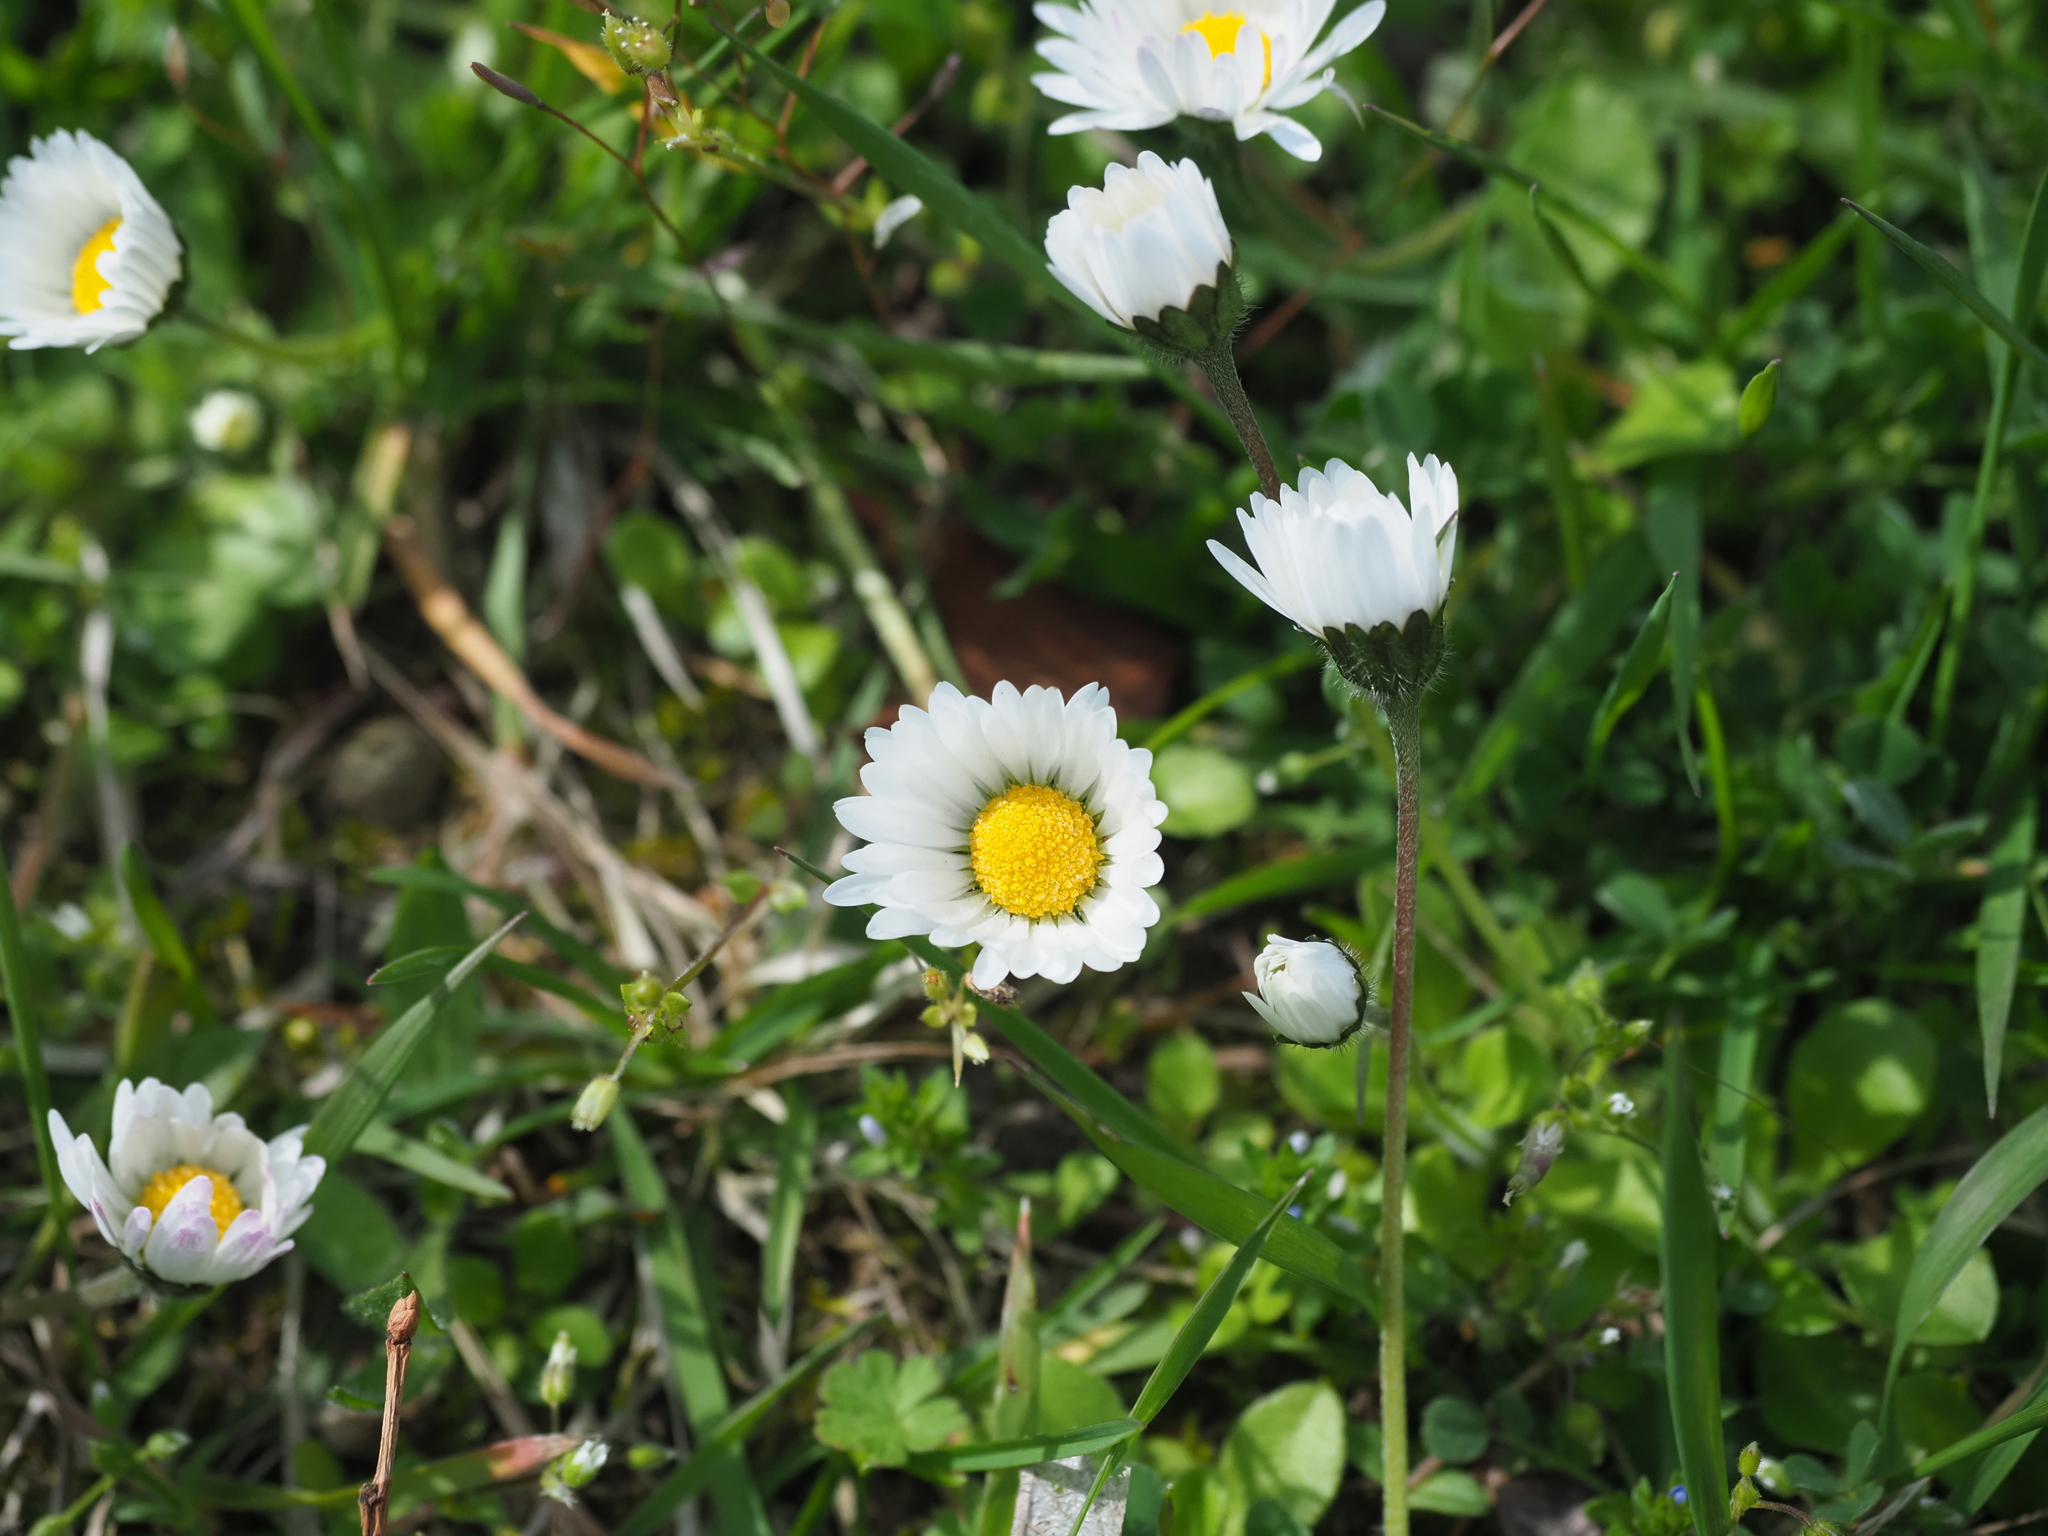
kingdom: Plantae
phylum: Tracheophyta
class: Magnoliopsida
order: Asterales
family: Asteraceae
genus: Bellis
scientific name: Bellis perennis
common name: Lawndaisy
